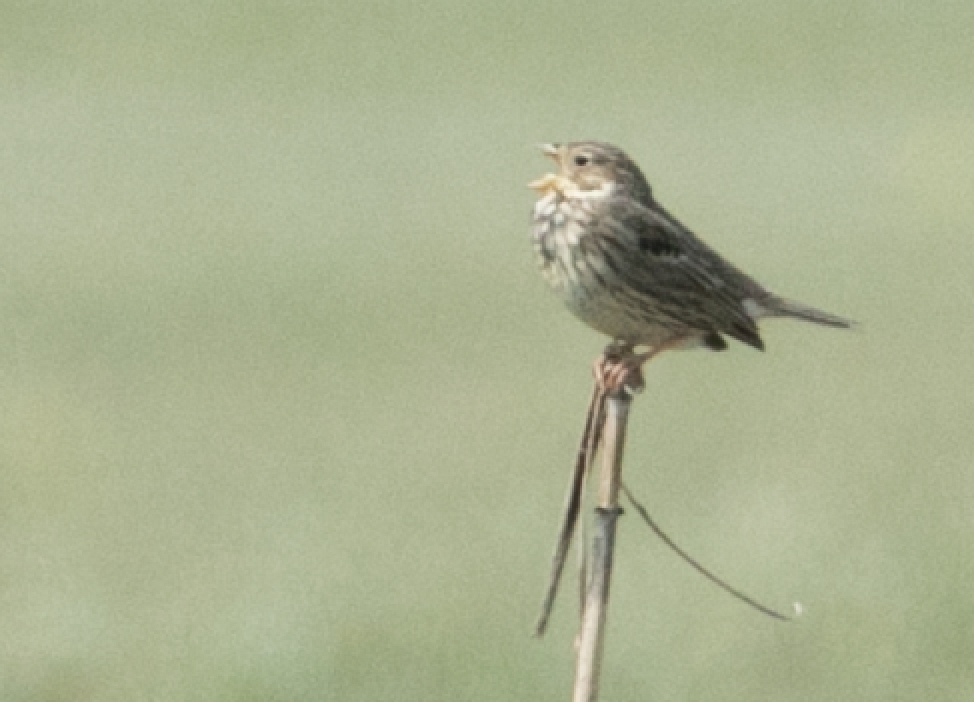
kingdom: Animalia
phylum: Chordata
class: Aves
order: Passeriformes
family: Emberizidae
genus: Emberiza
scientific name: Emberiza calandra
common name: Corn bunting
